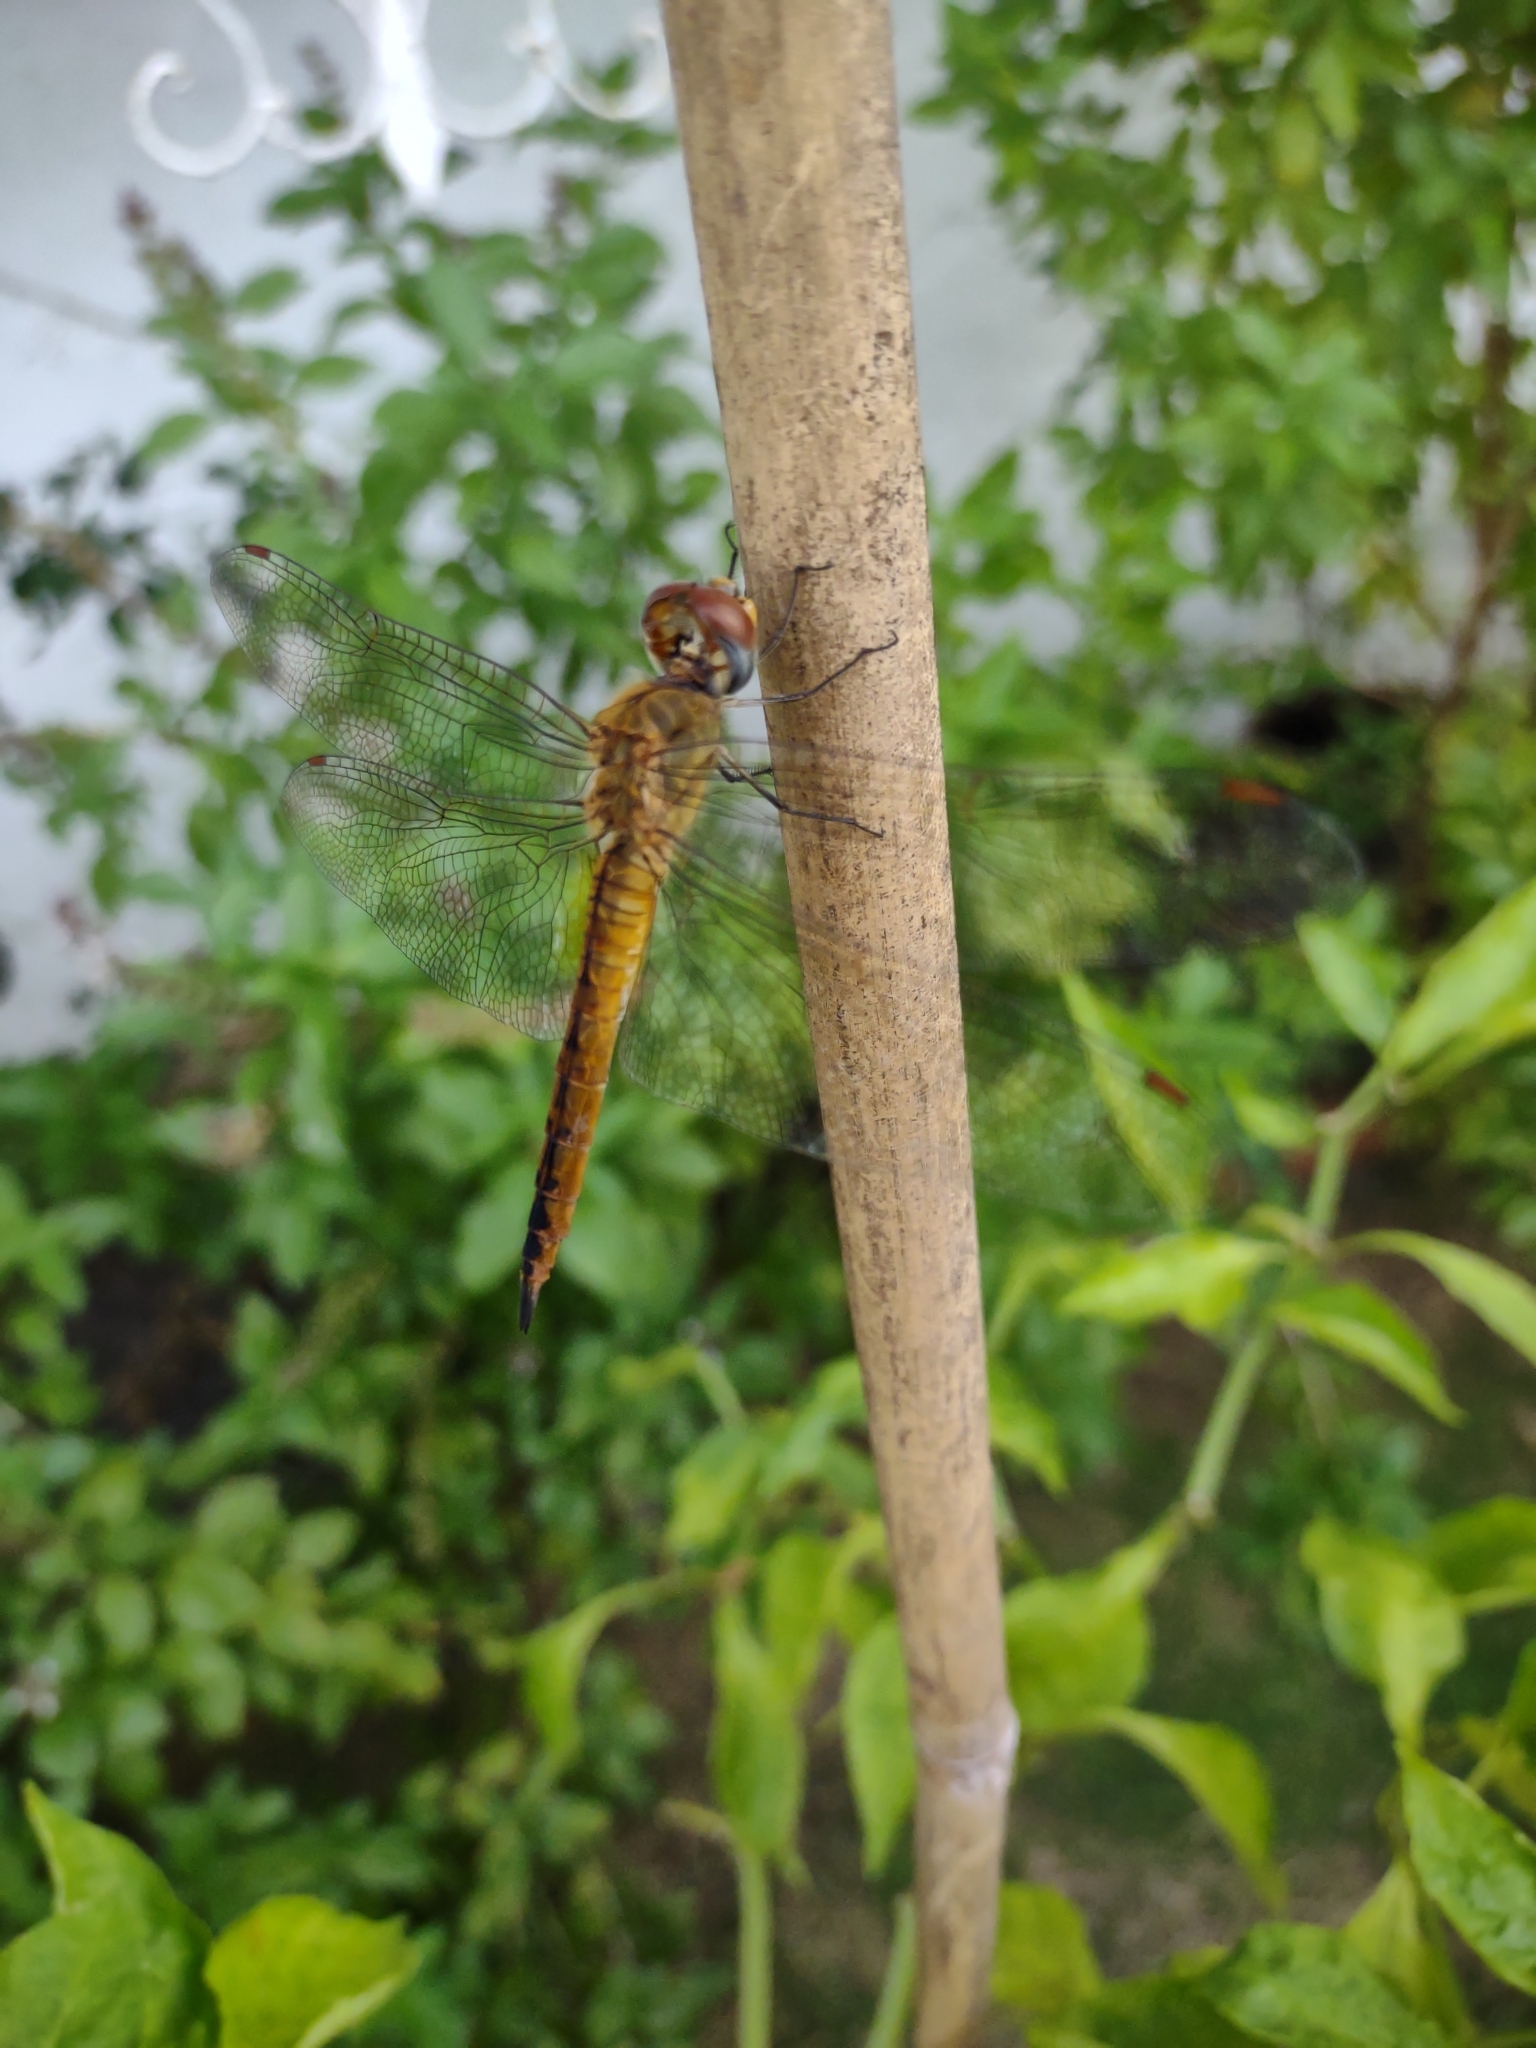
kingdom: Animalia
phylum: Arthropoda
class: Insecta
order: Odonata
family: Libellulidae
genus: Pantala
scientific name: Pantala flavescens
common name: Wandering glider
